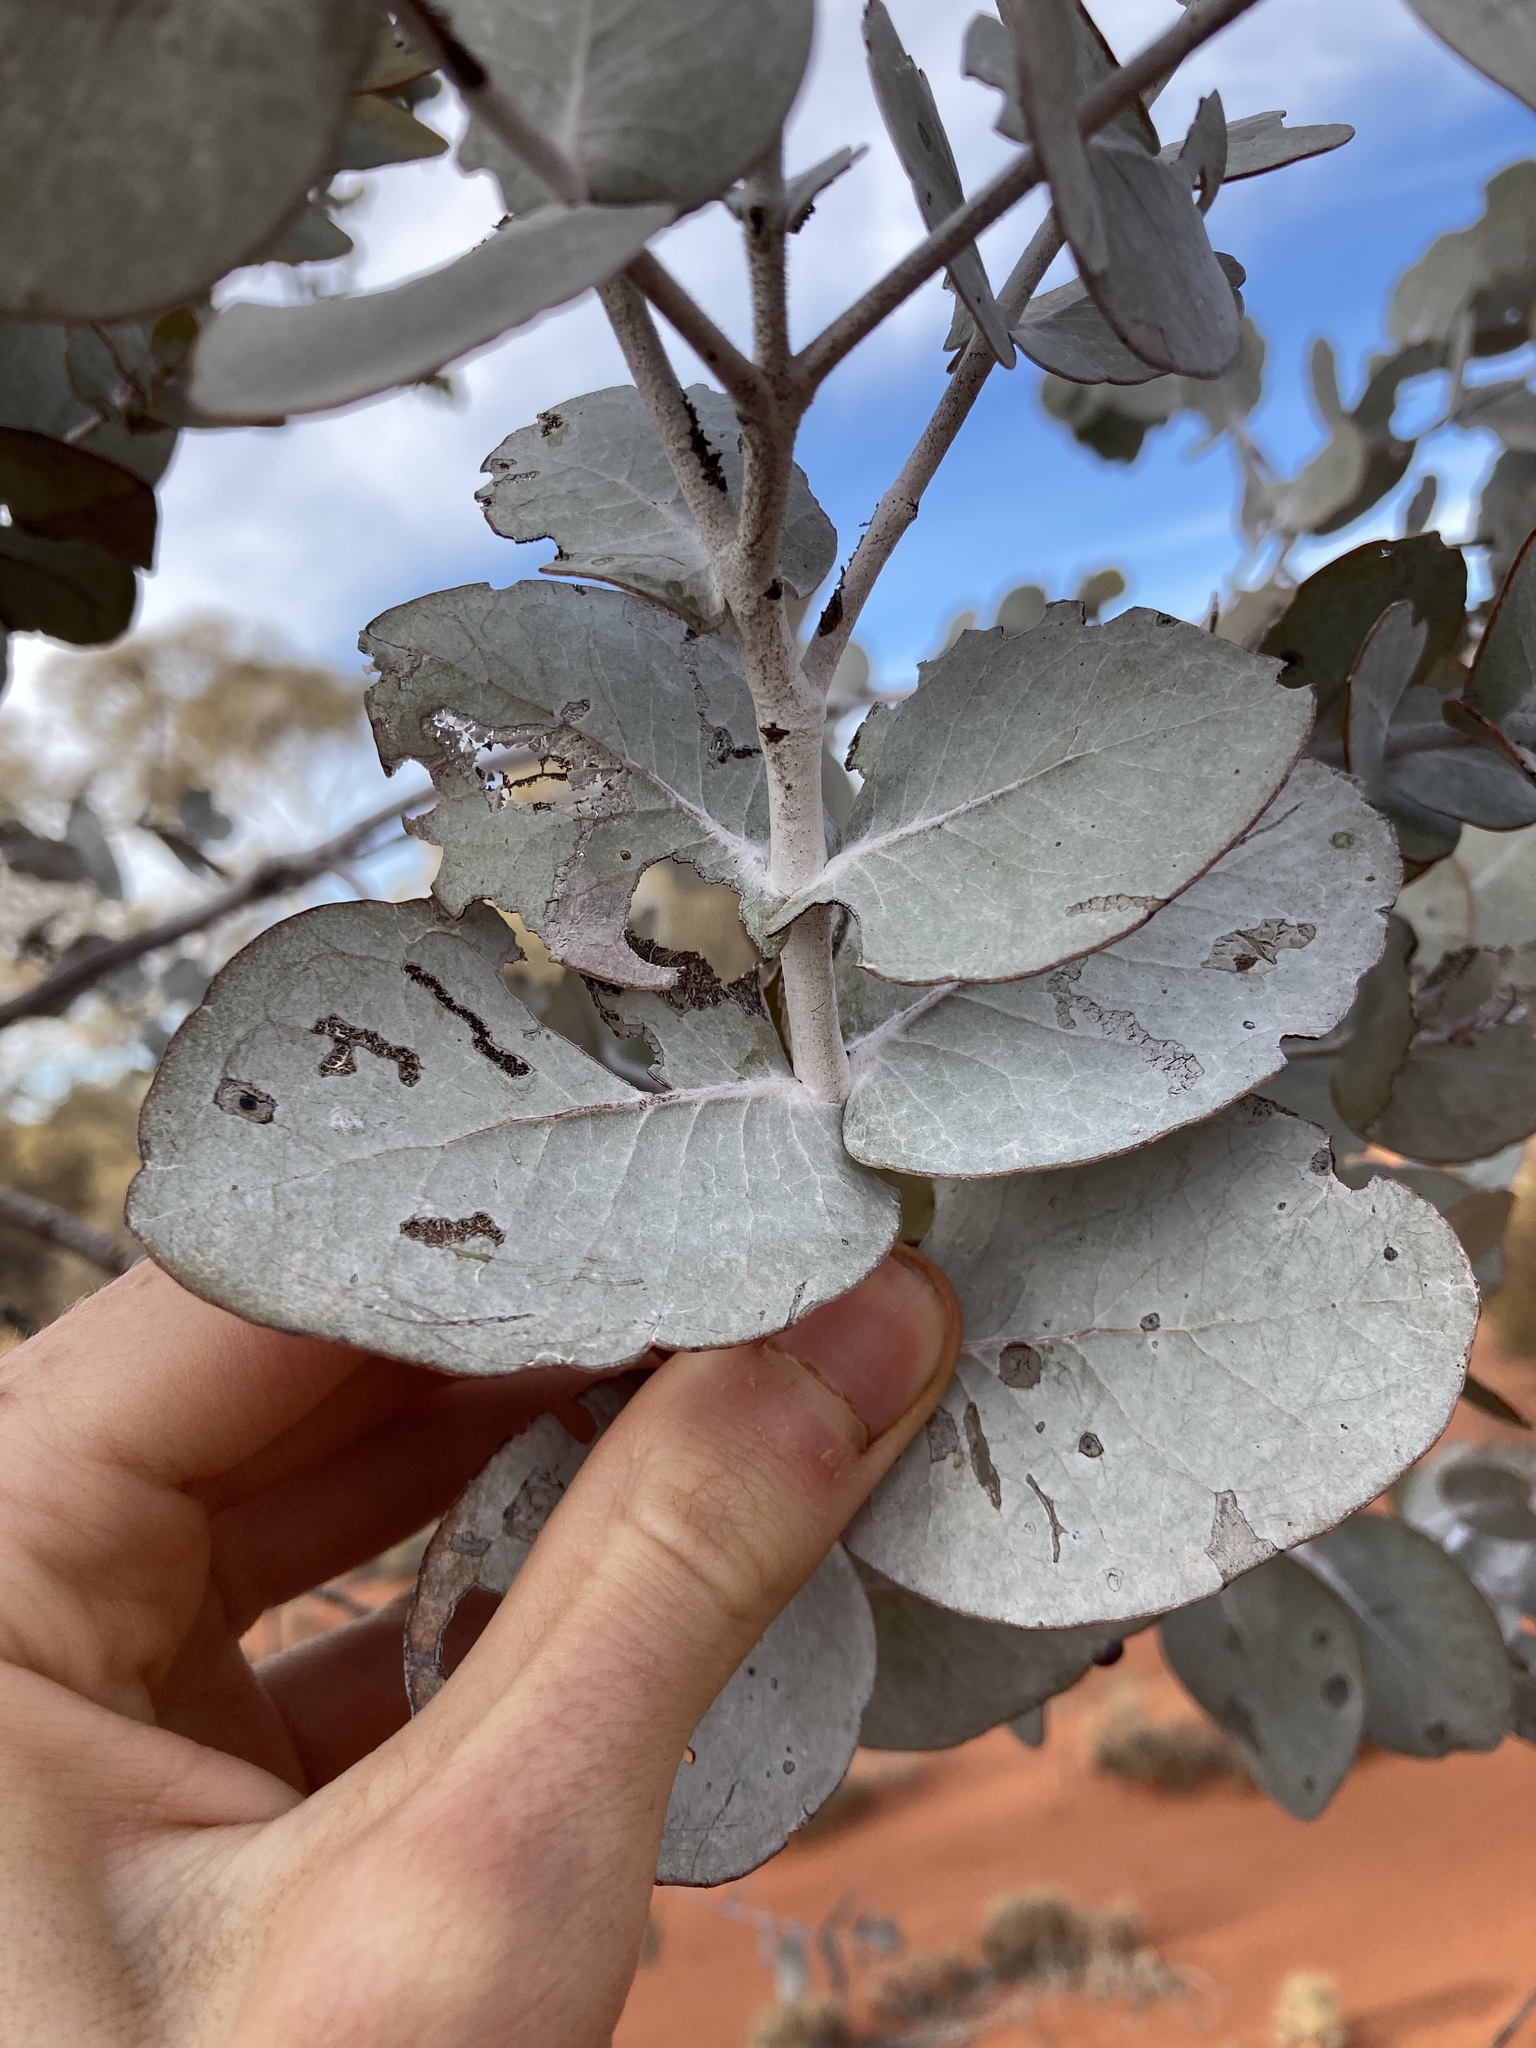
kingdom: Plantae
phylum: Tracheophyta
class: Magnoliopsida
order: Myrtales
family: Myrtaceae
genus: Eucalyptus
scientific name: Eucalyptus gongylocarpa
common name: Desert gum
